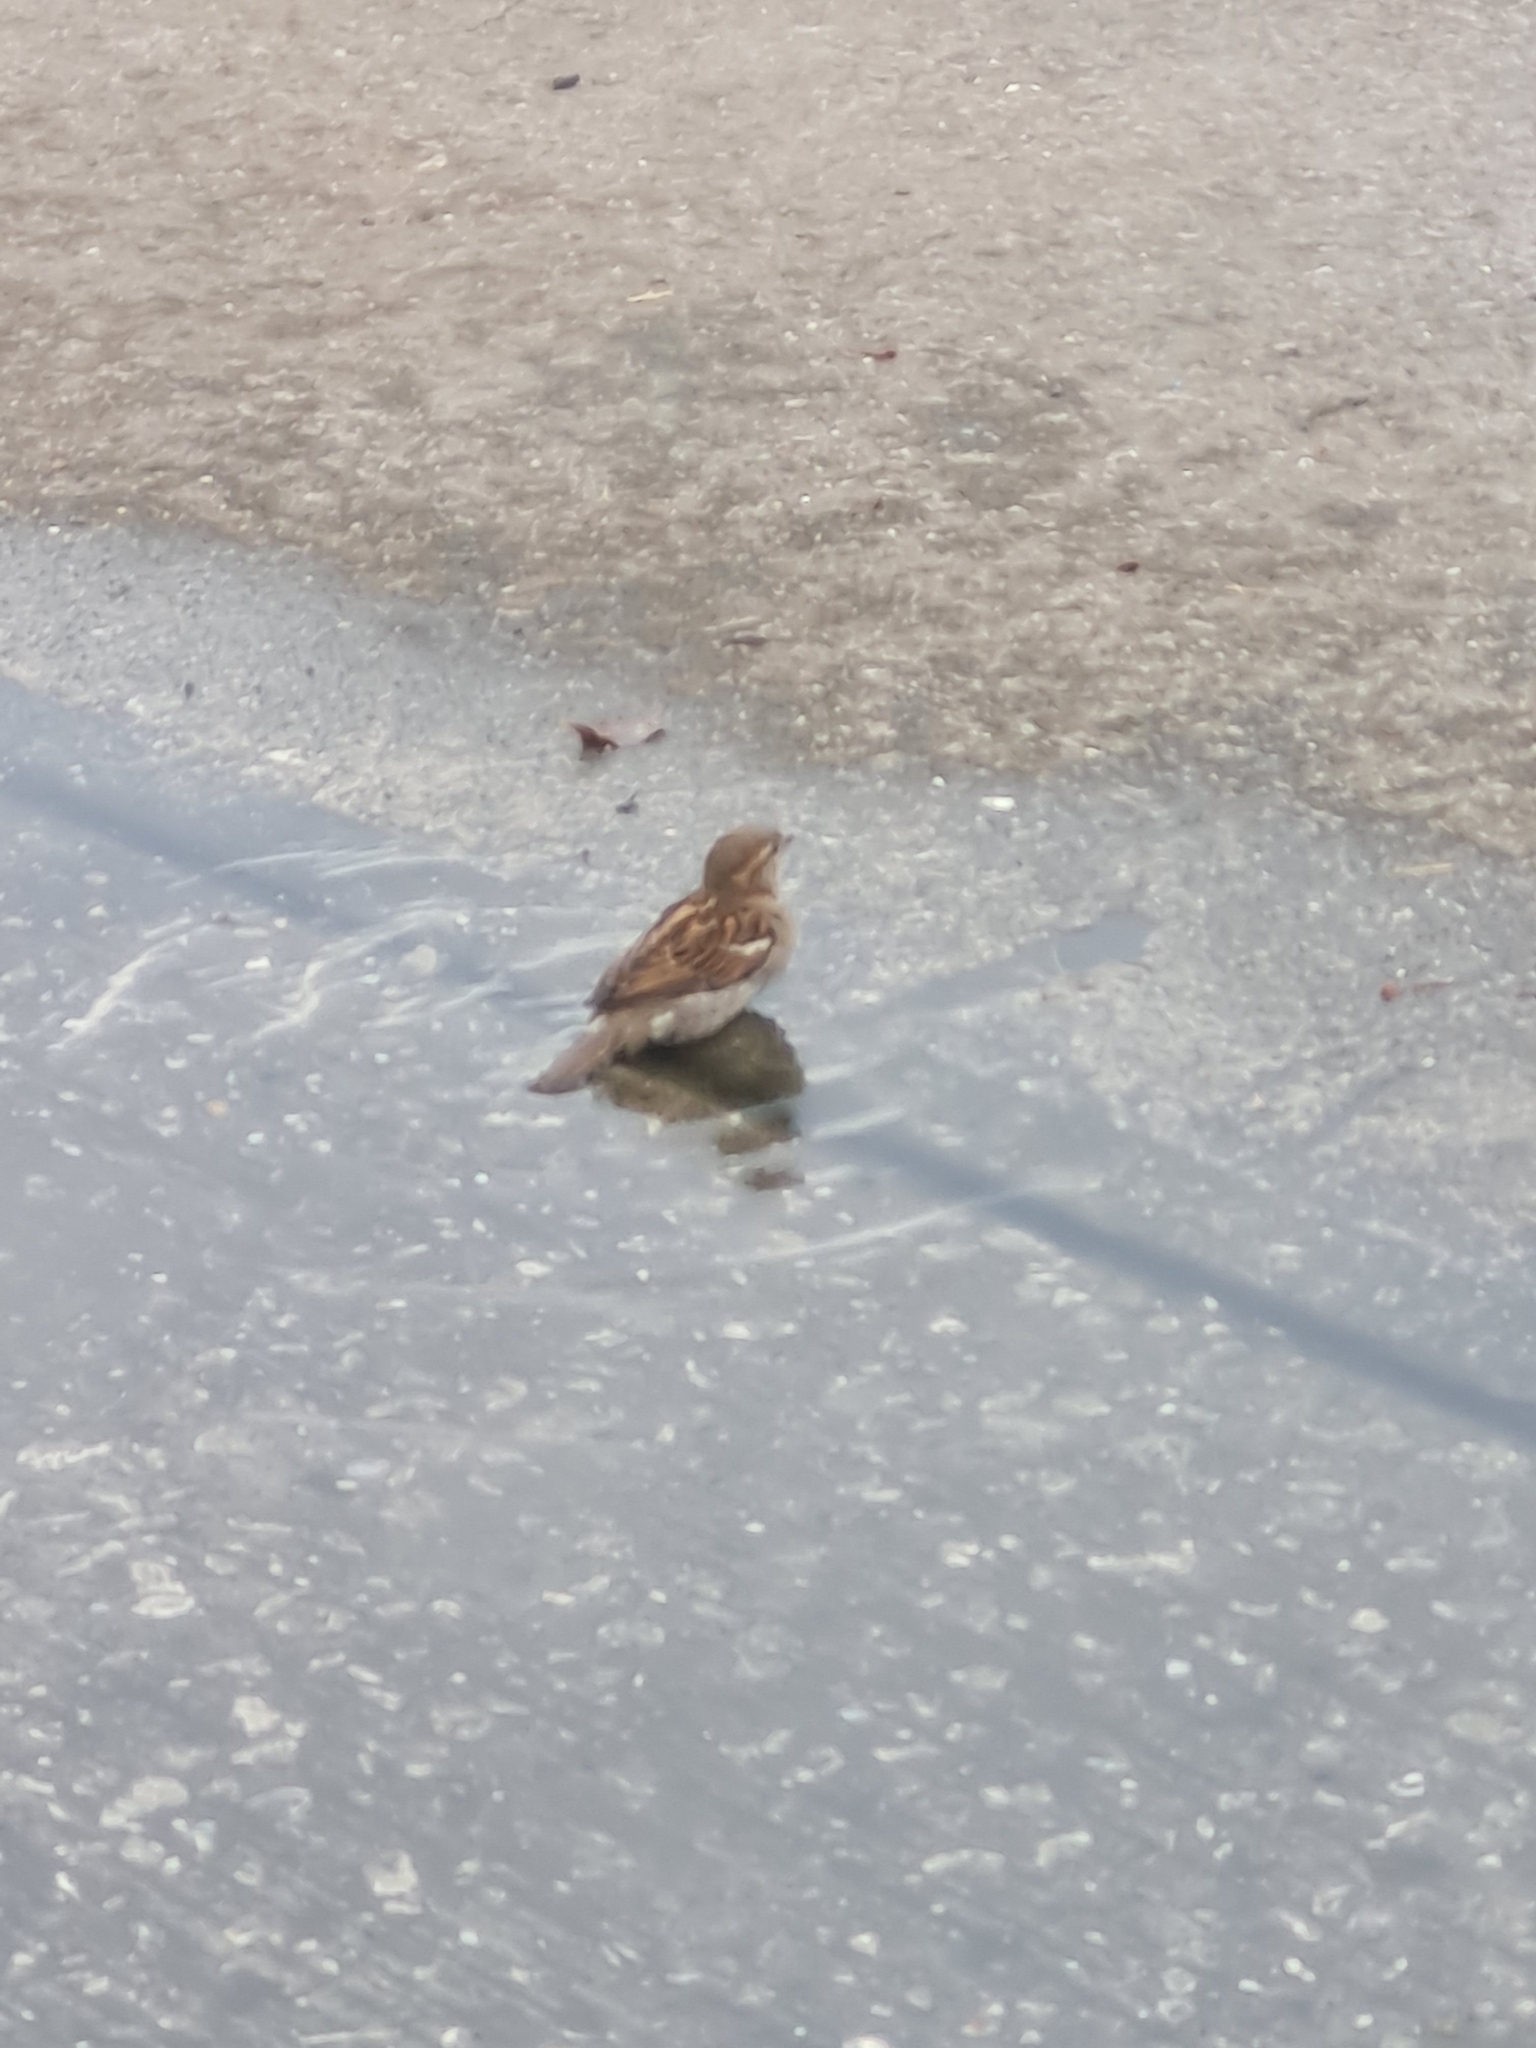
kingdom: Animalia
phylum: Chordata
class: Aves
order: Passeriformes
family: Passeridae
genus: Passer
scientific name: Passer domesticus
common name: House sparrow
